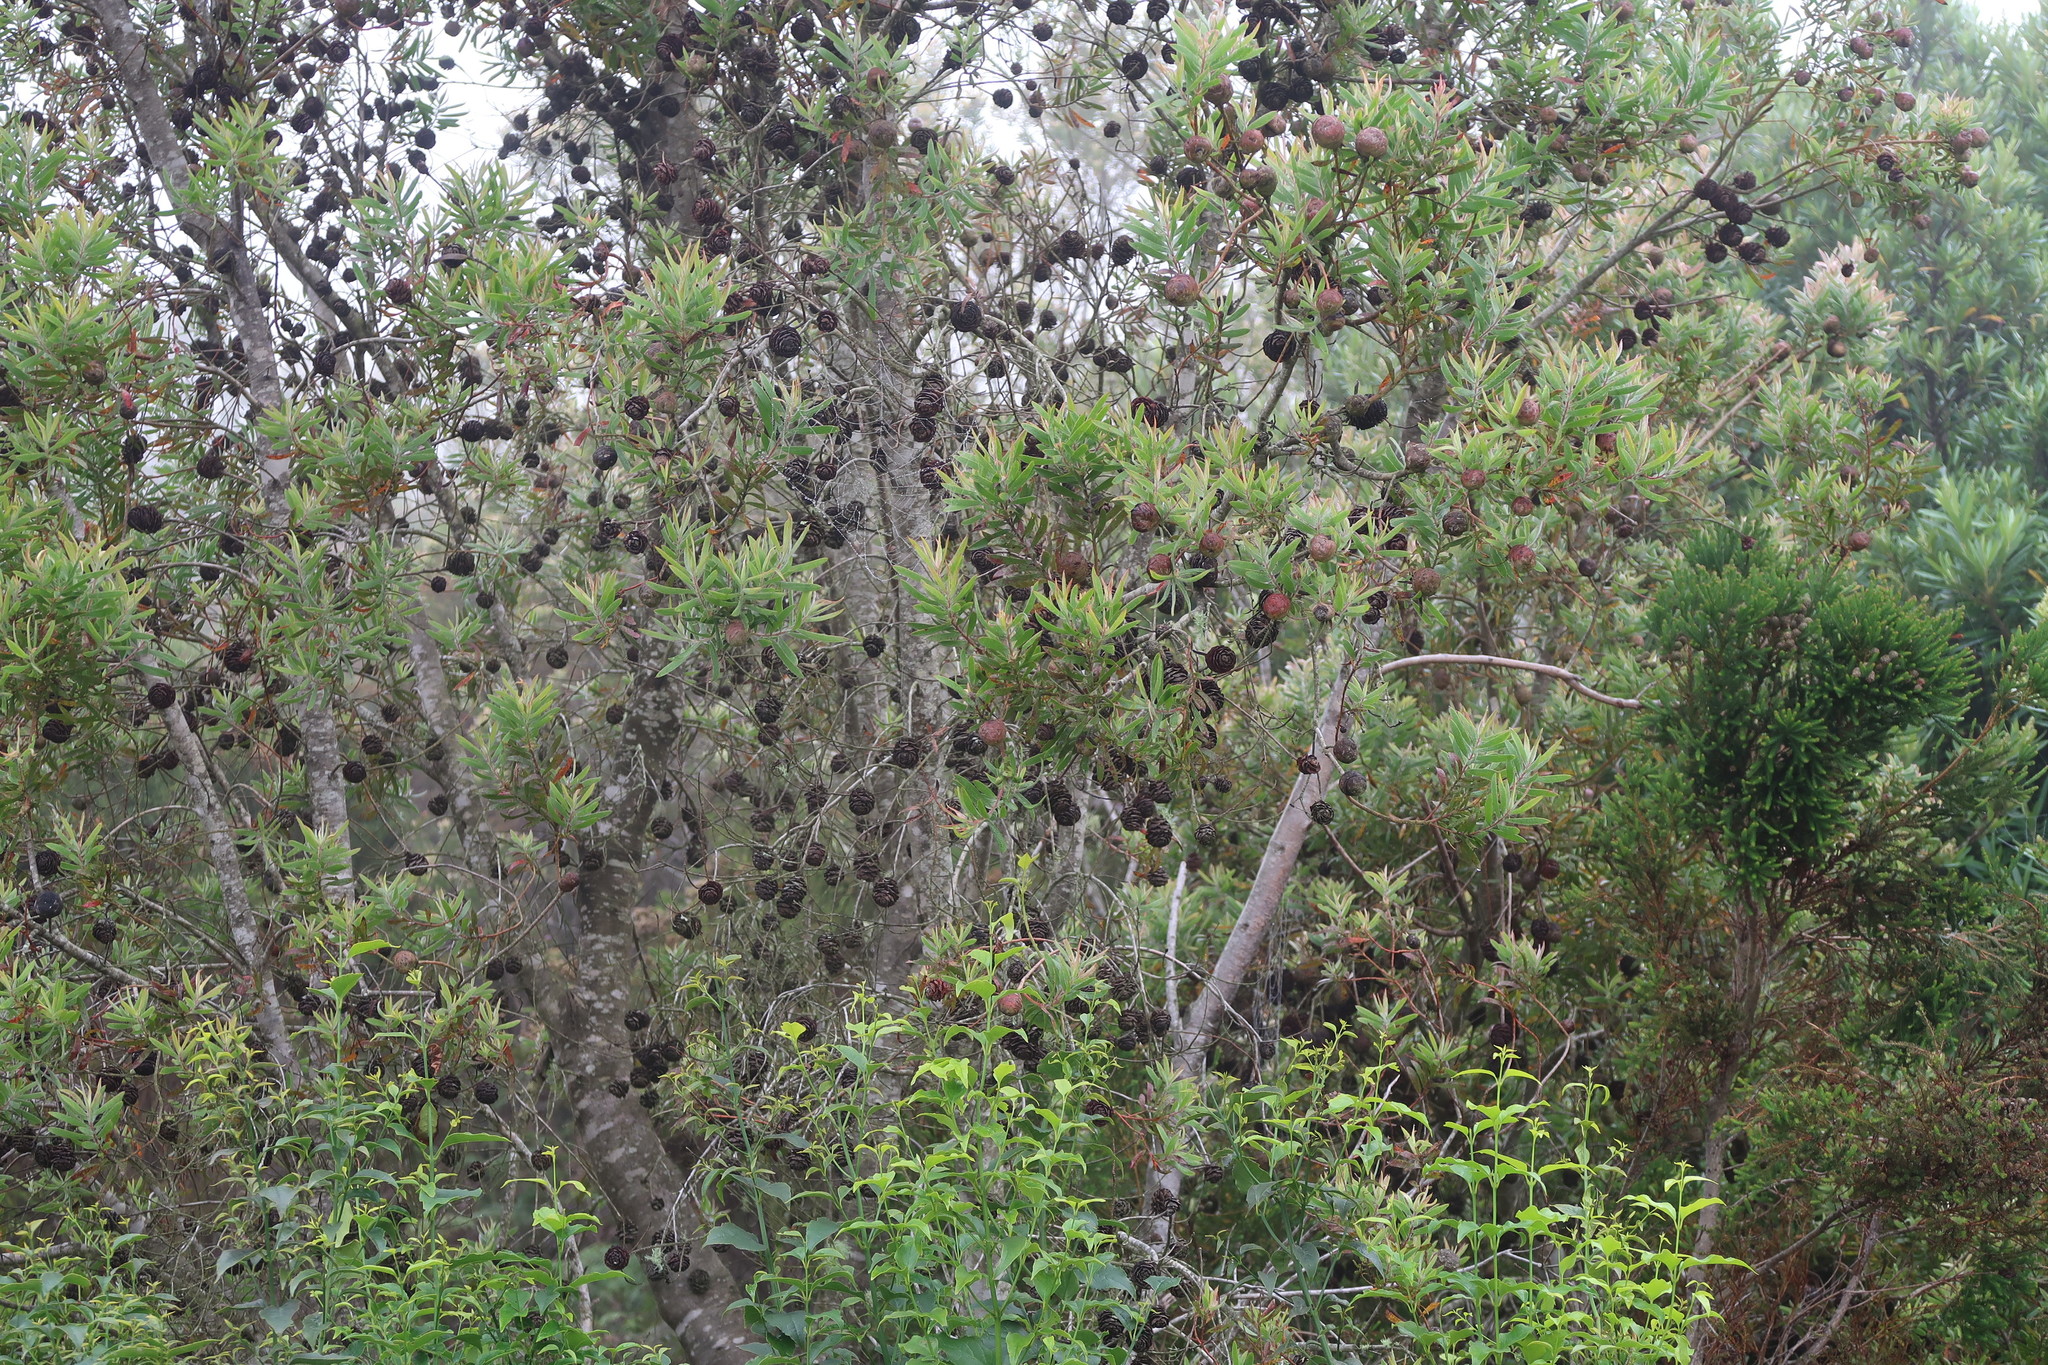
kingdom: Plantae
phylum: Tracheophyta
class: Magnoliopsida
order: Proteales
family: Proteaceae
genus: Leucadendron
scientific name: Leucadendron conicum
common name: Garden route conebush
